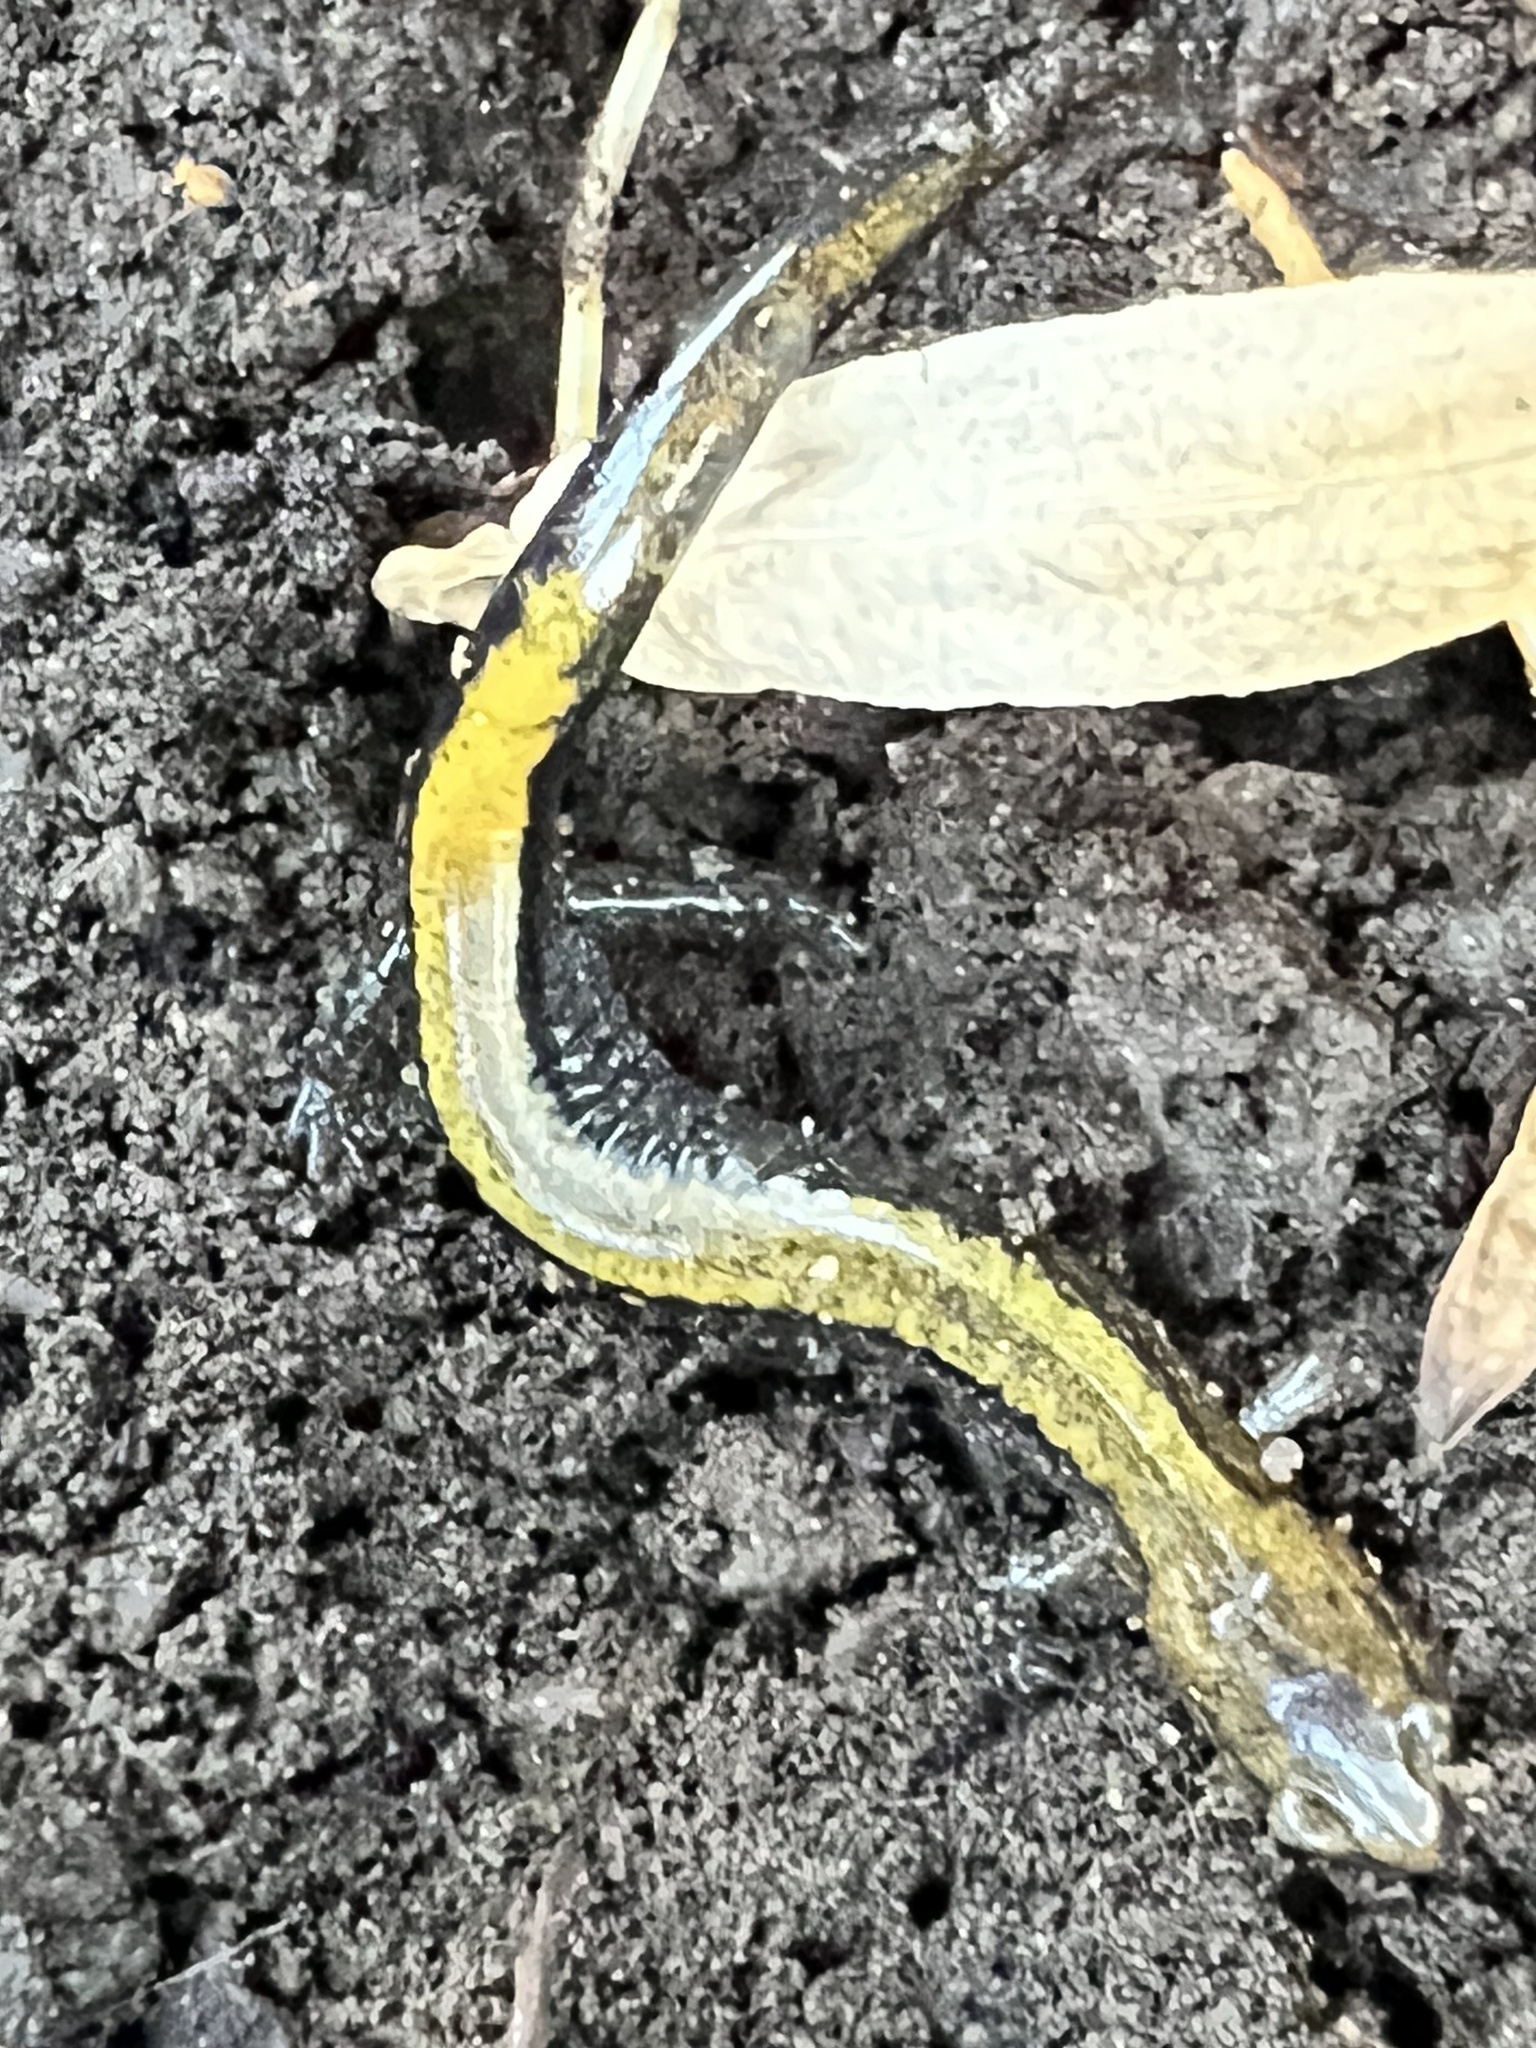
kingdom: Animalia
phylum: Chordata
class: Amphibia
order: Caudata
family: Plethodontidae
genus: Plethodon
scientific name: Plethodon cinereus
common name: Redback salamander
